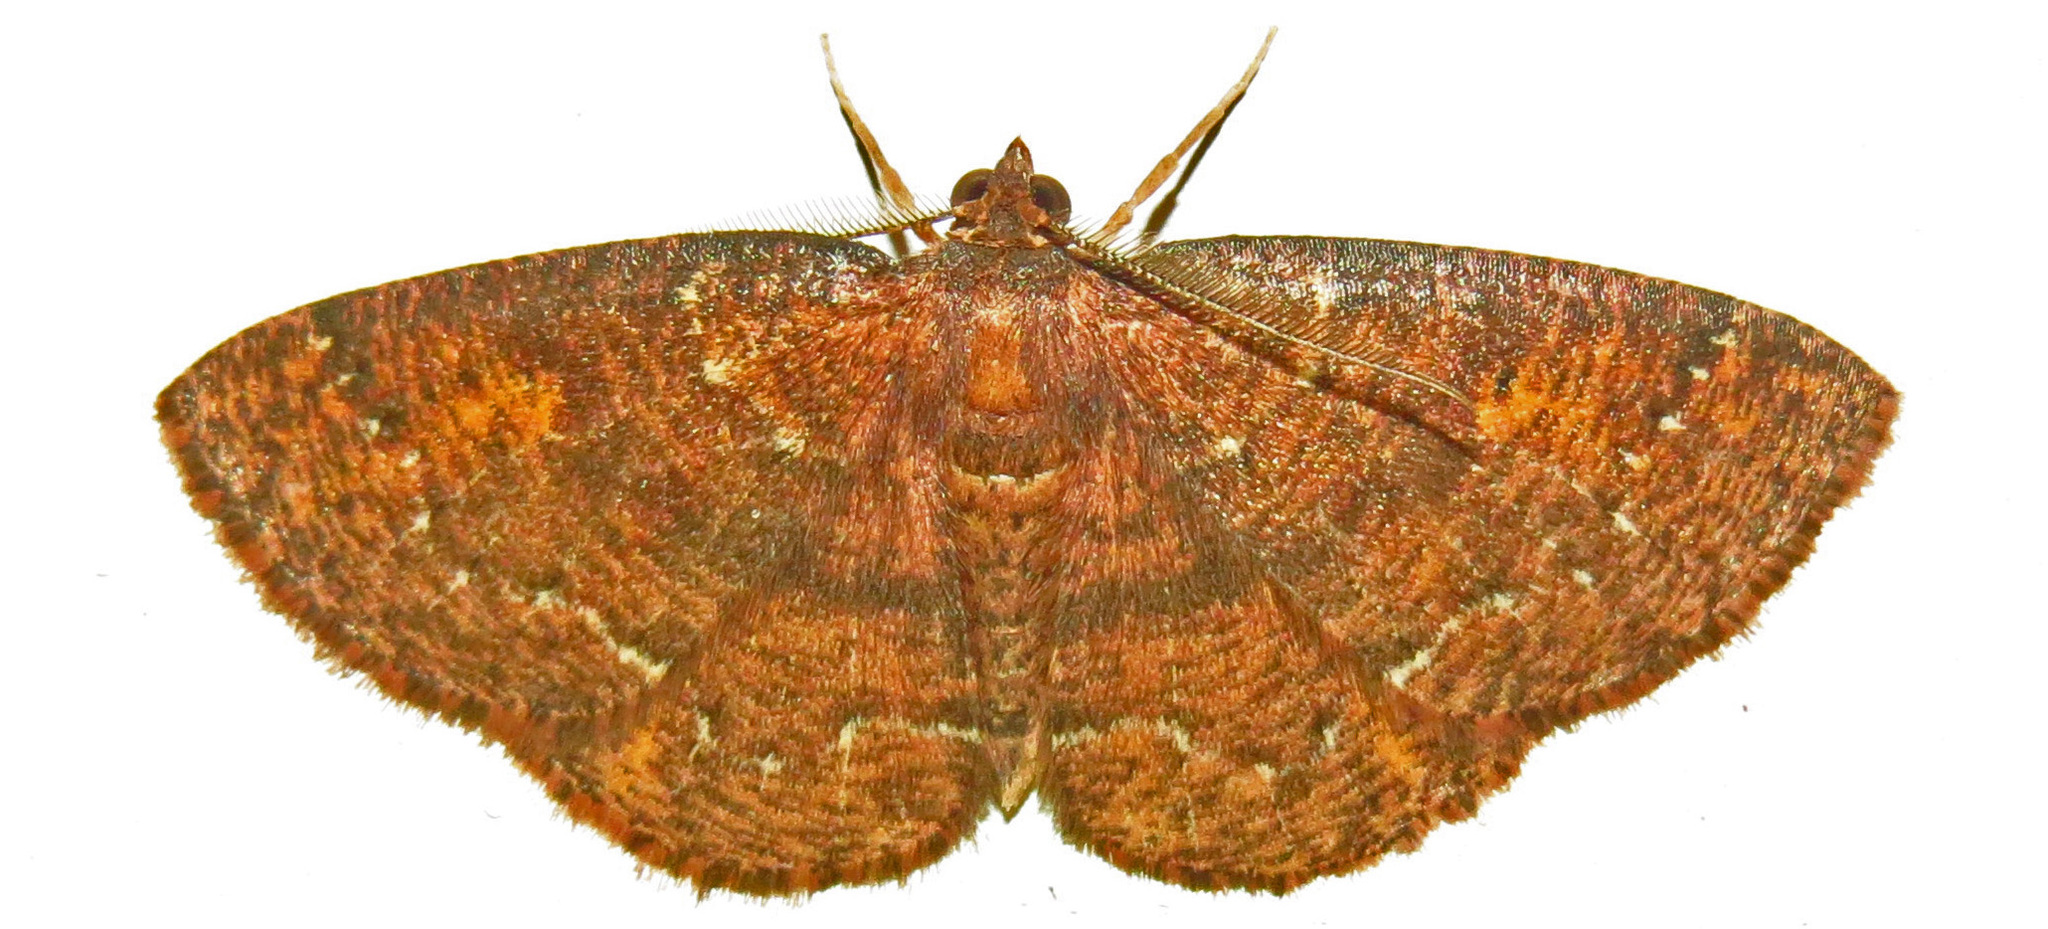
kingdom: Animalia
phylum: Arthropoda
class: Insecta
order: Lepidoptera
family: Geometridae
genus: Ilexia
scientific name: Ilexia intractata
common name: Black-dotted ruddy moth
